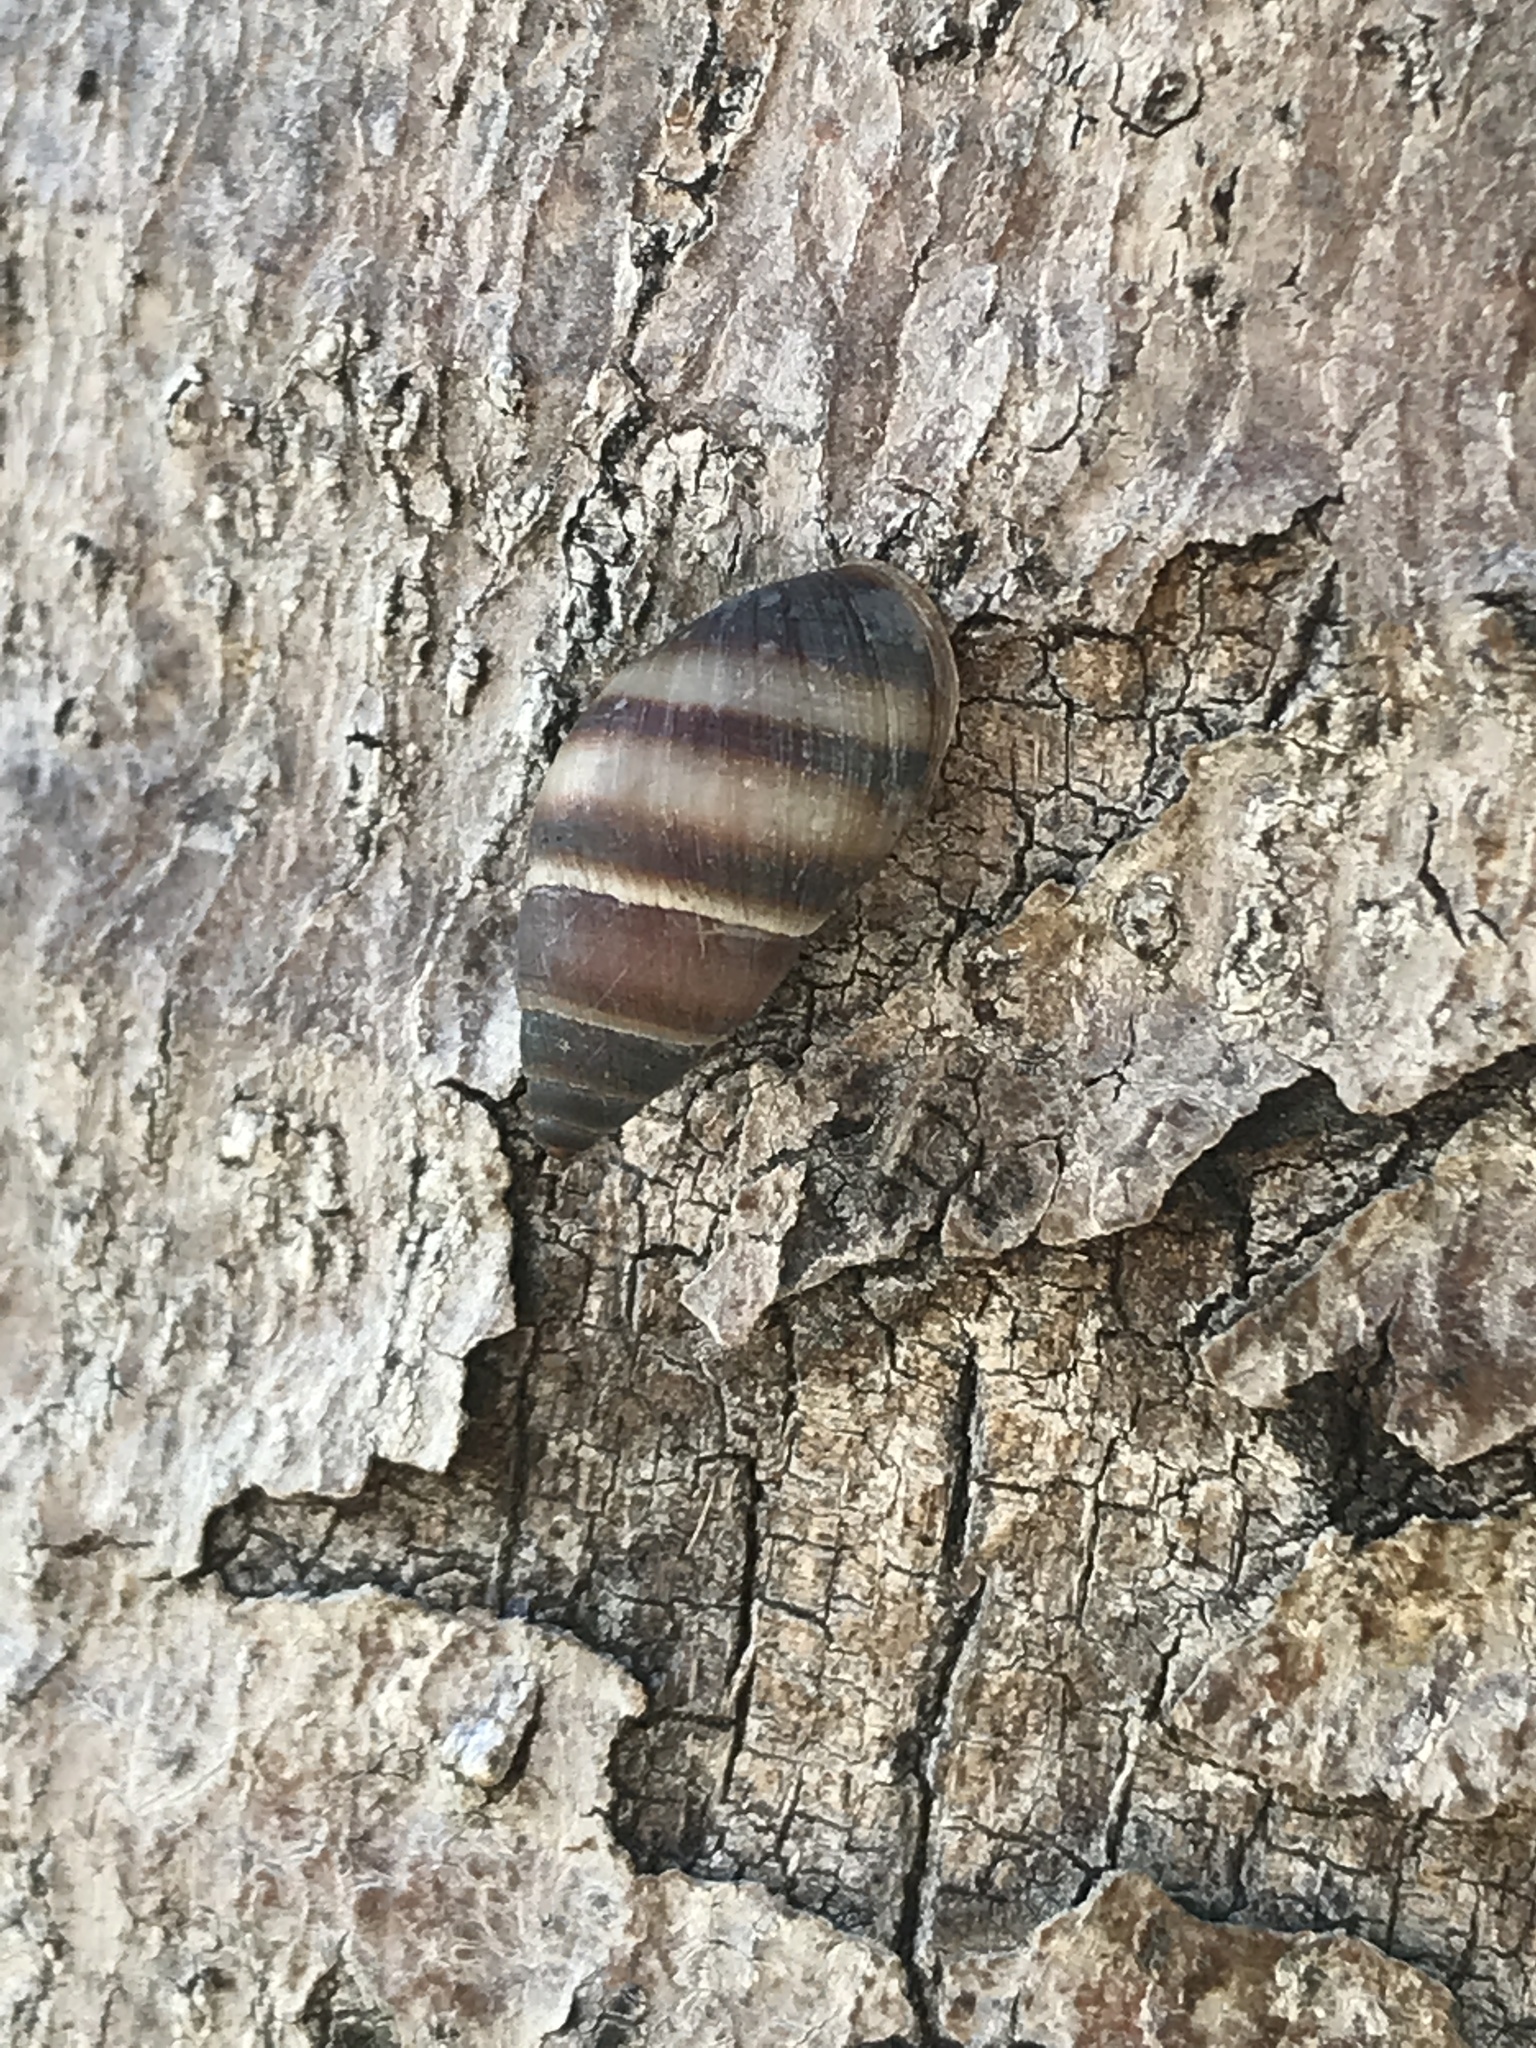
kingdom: Animalia
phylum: Mollusca
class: Gastropoda
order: Stylommatophora
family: Bulimulidae
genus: Bulimulus
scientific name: Bulimulus guadalupensis
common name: West indian bulimulus
